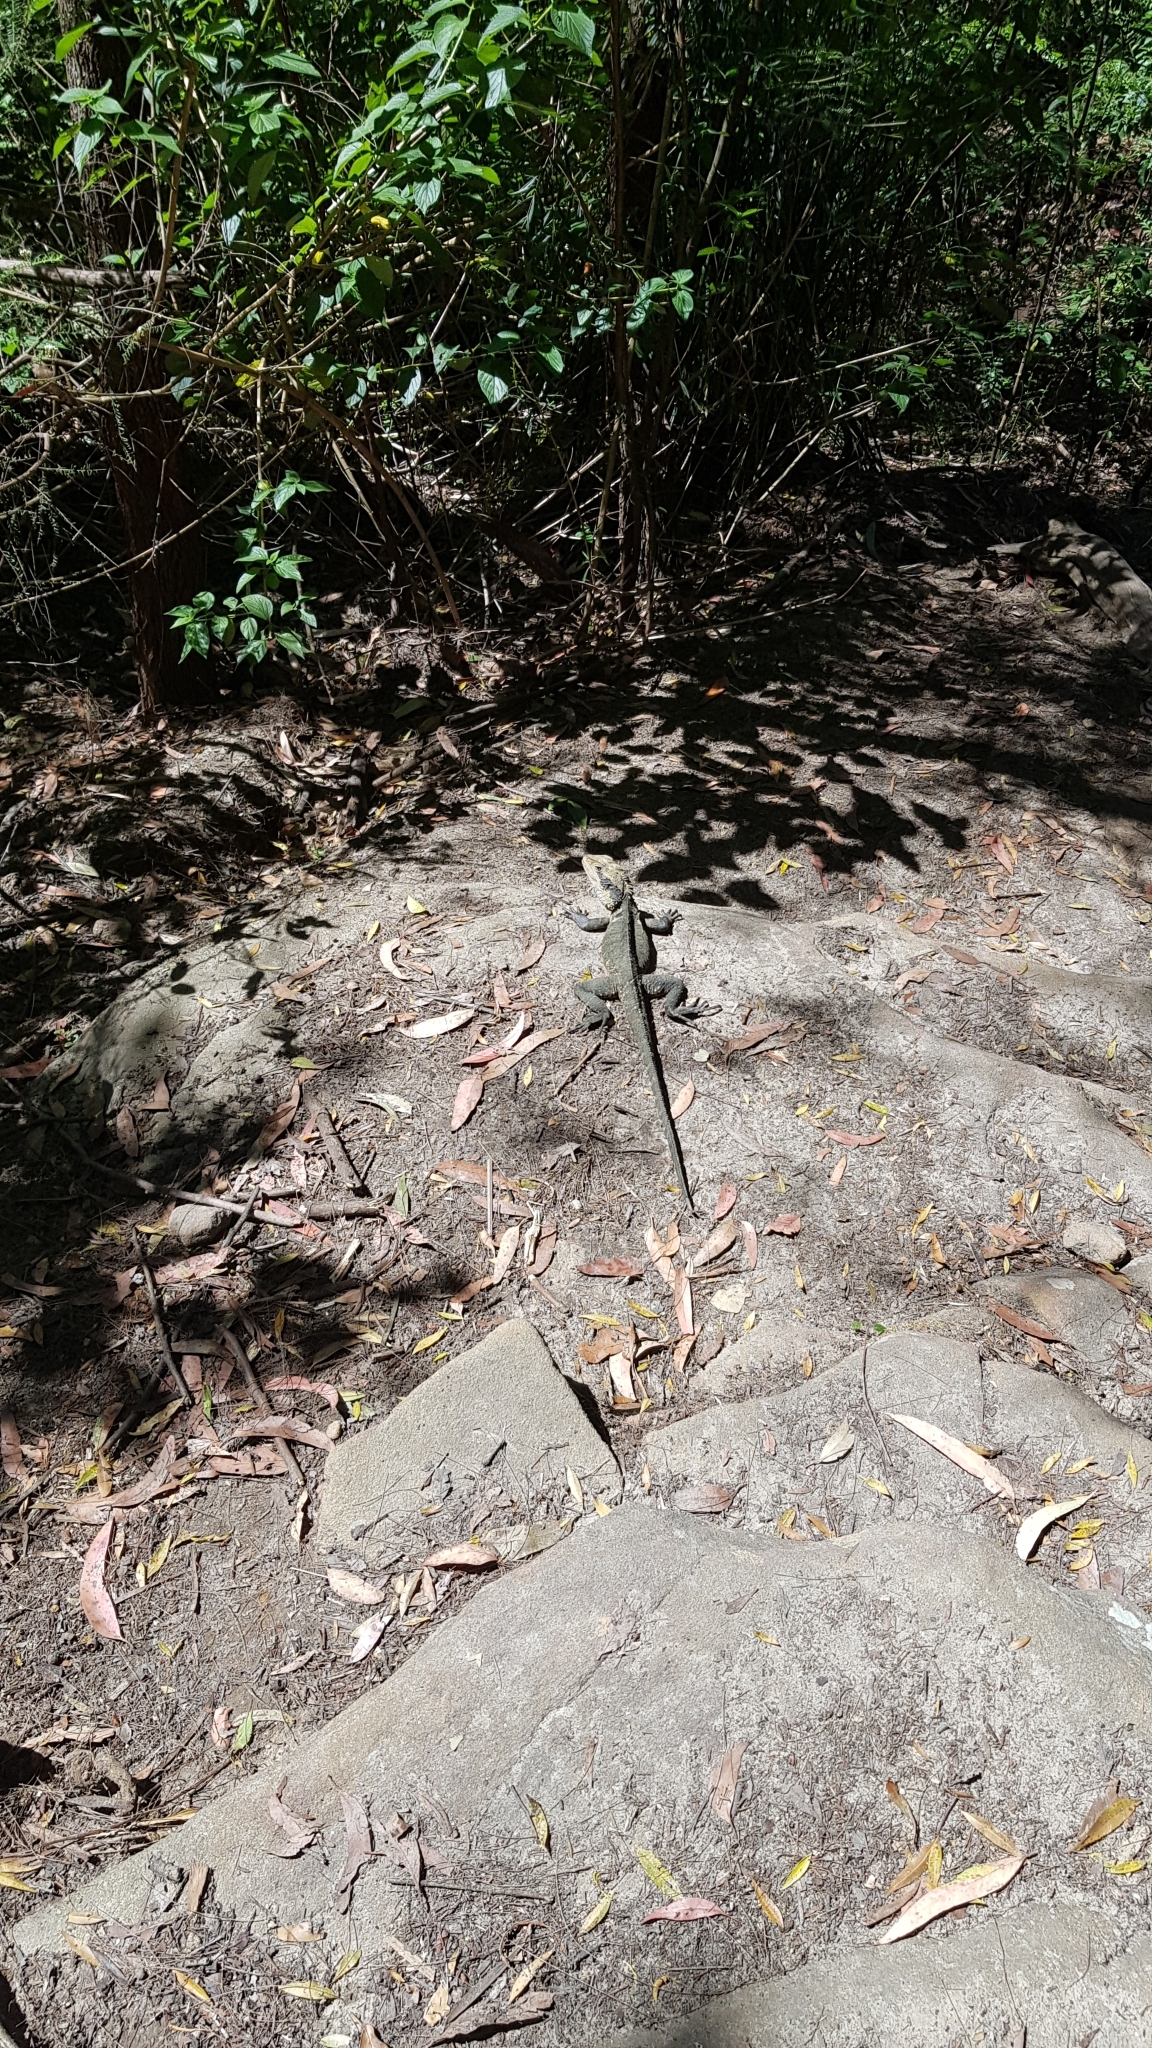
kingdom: Animalia
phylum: Chordata
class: Squamata
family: Agamidae
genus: Intellagama
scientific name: Intellagama lesueurii
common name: Eastern water dragon
